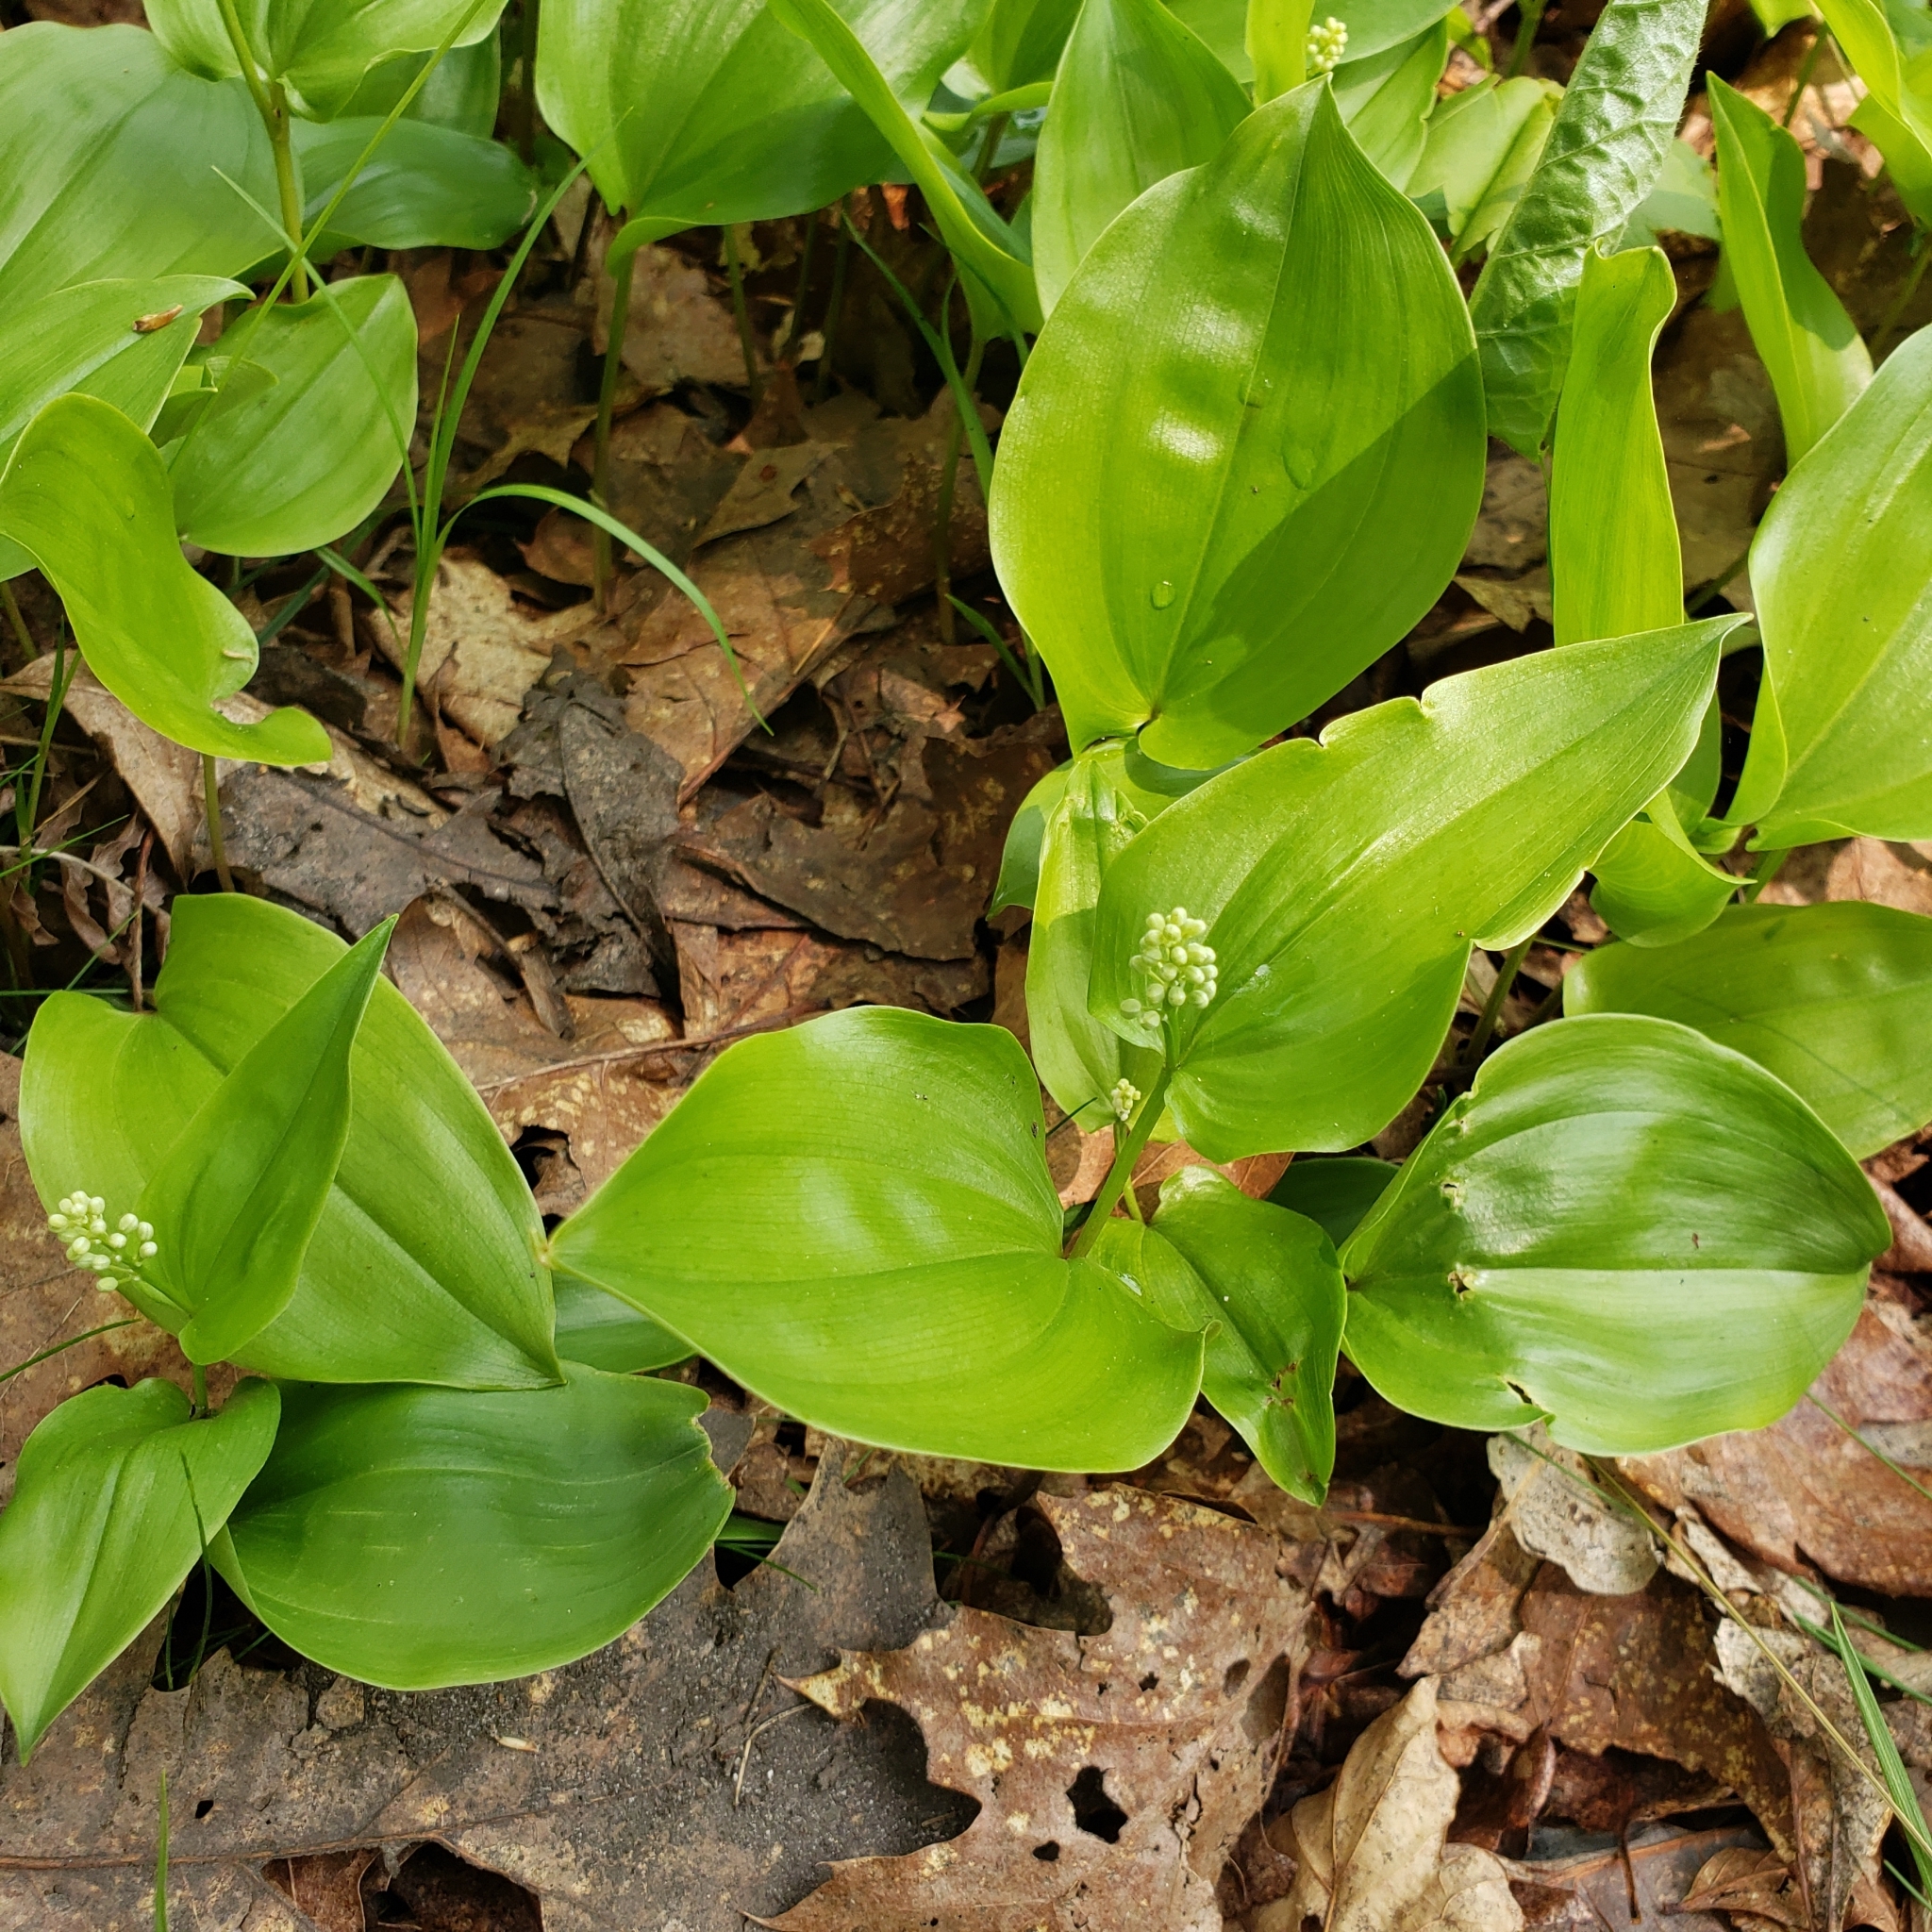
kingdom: Plantae
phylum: Tracheophyta
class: Liliopsida
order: Asparagales
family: Asparagaceae
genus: Maianthemum
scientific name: Maianthemum canadense
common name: False lily-of-the-valley
